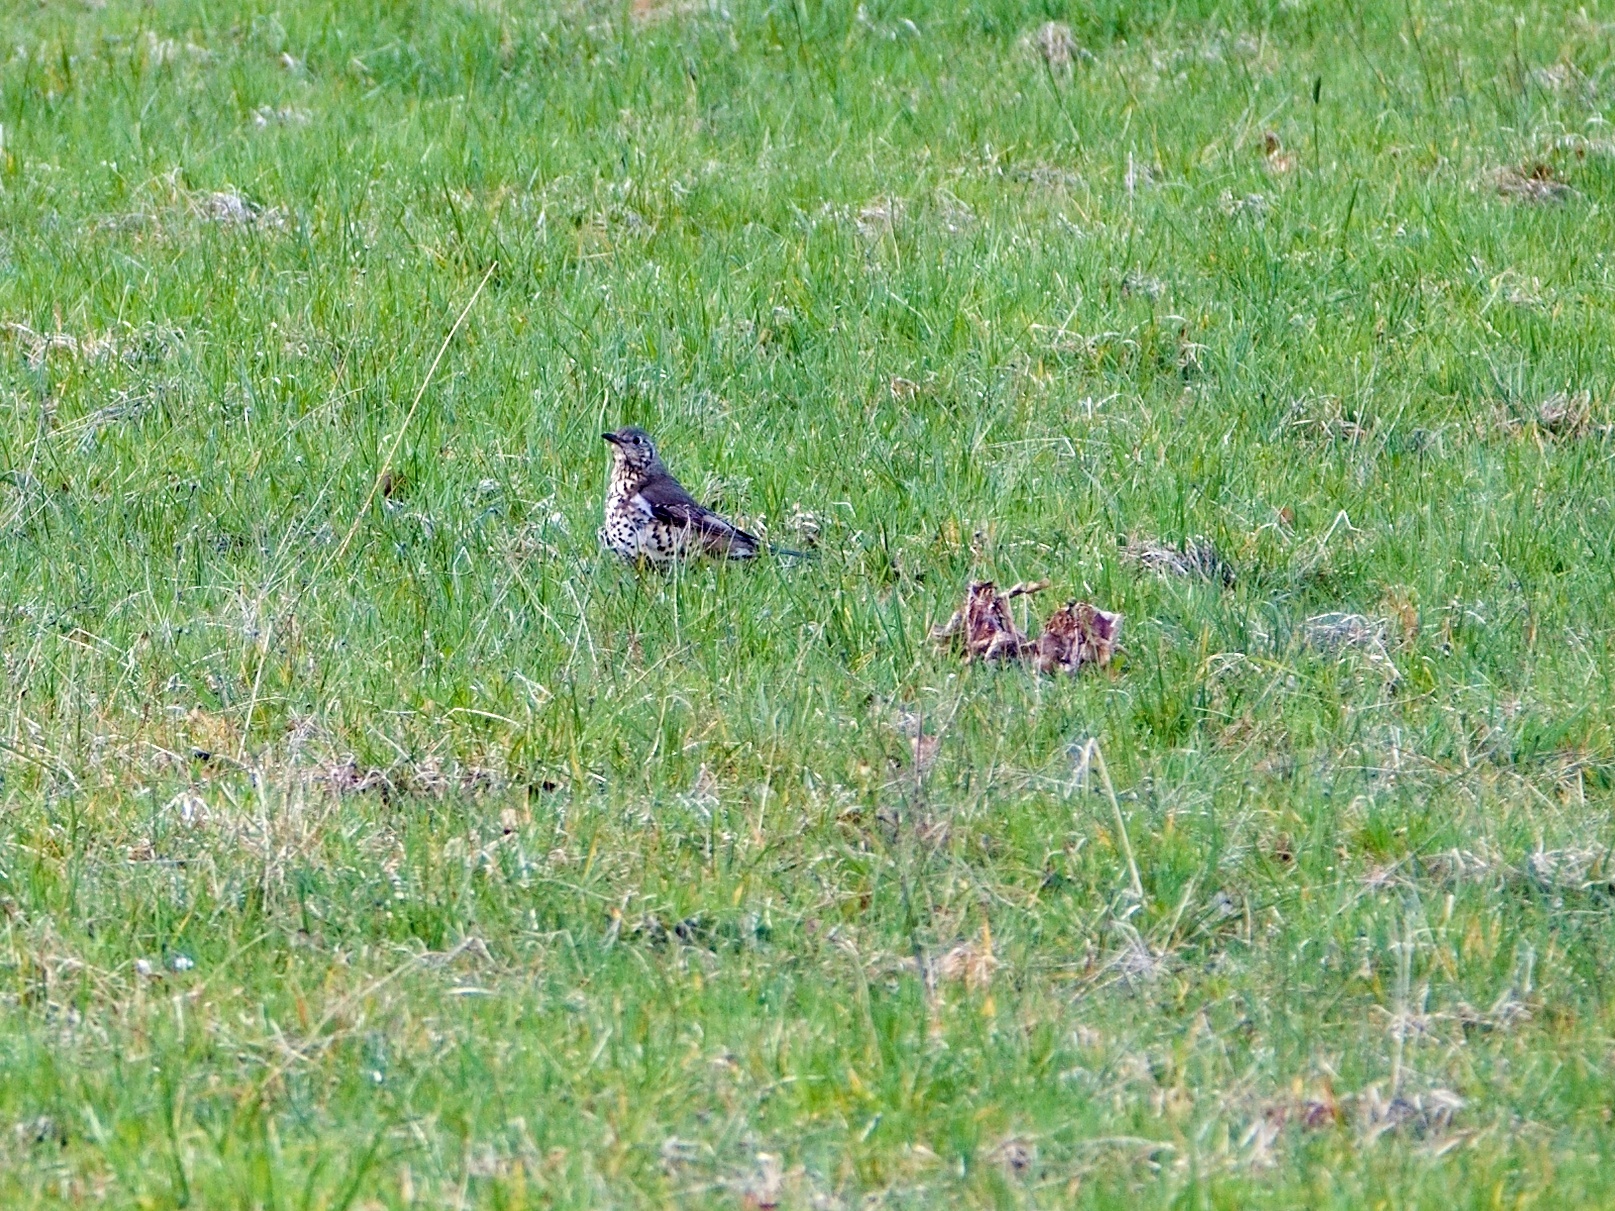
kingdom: Animalia
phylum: Chordata
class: Aves
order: Passeriformes
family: Turdidae
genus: Turdus
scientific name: Turdus viscivorus
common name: Mistle thrush
